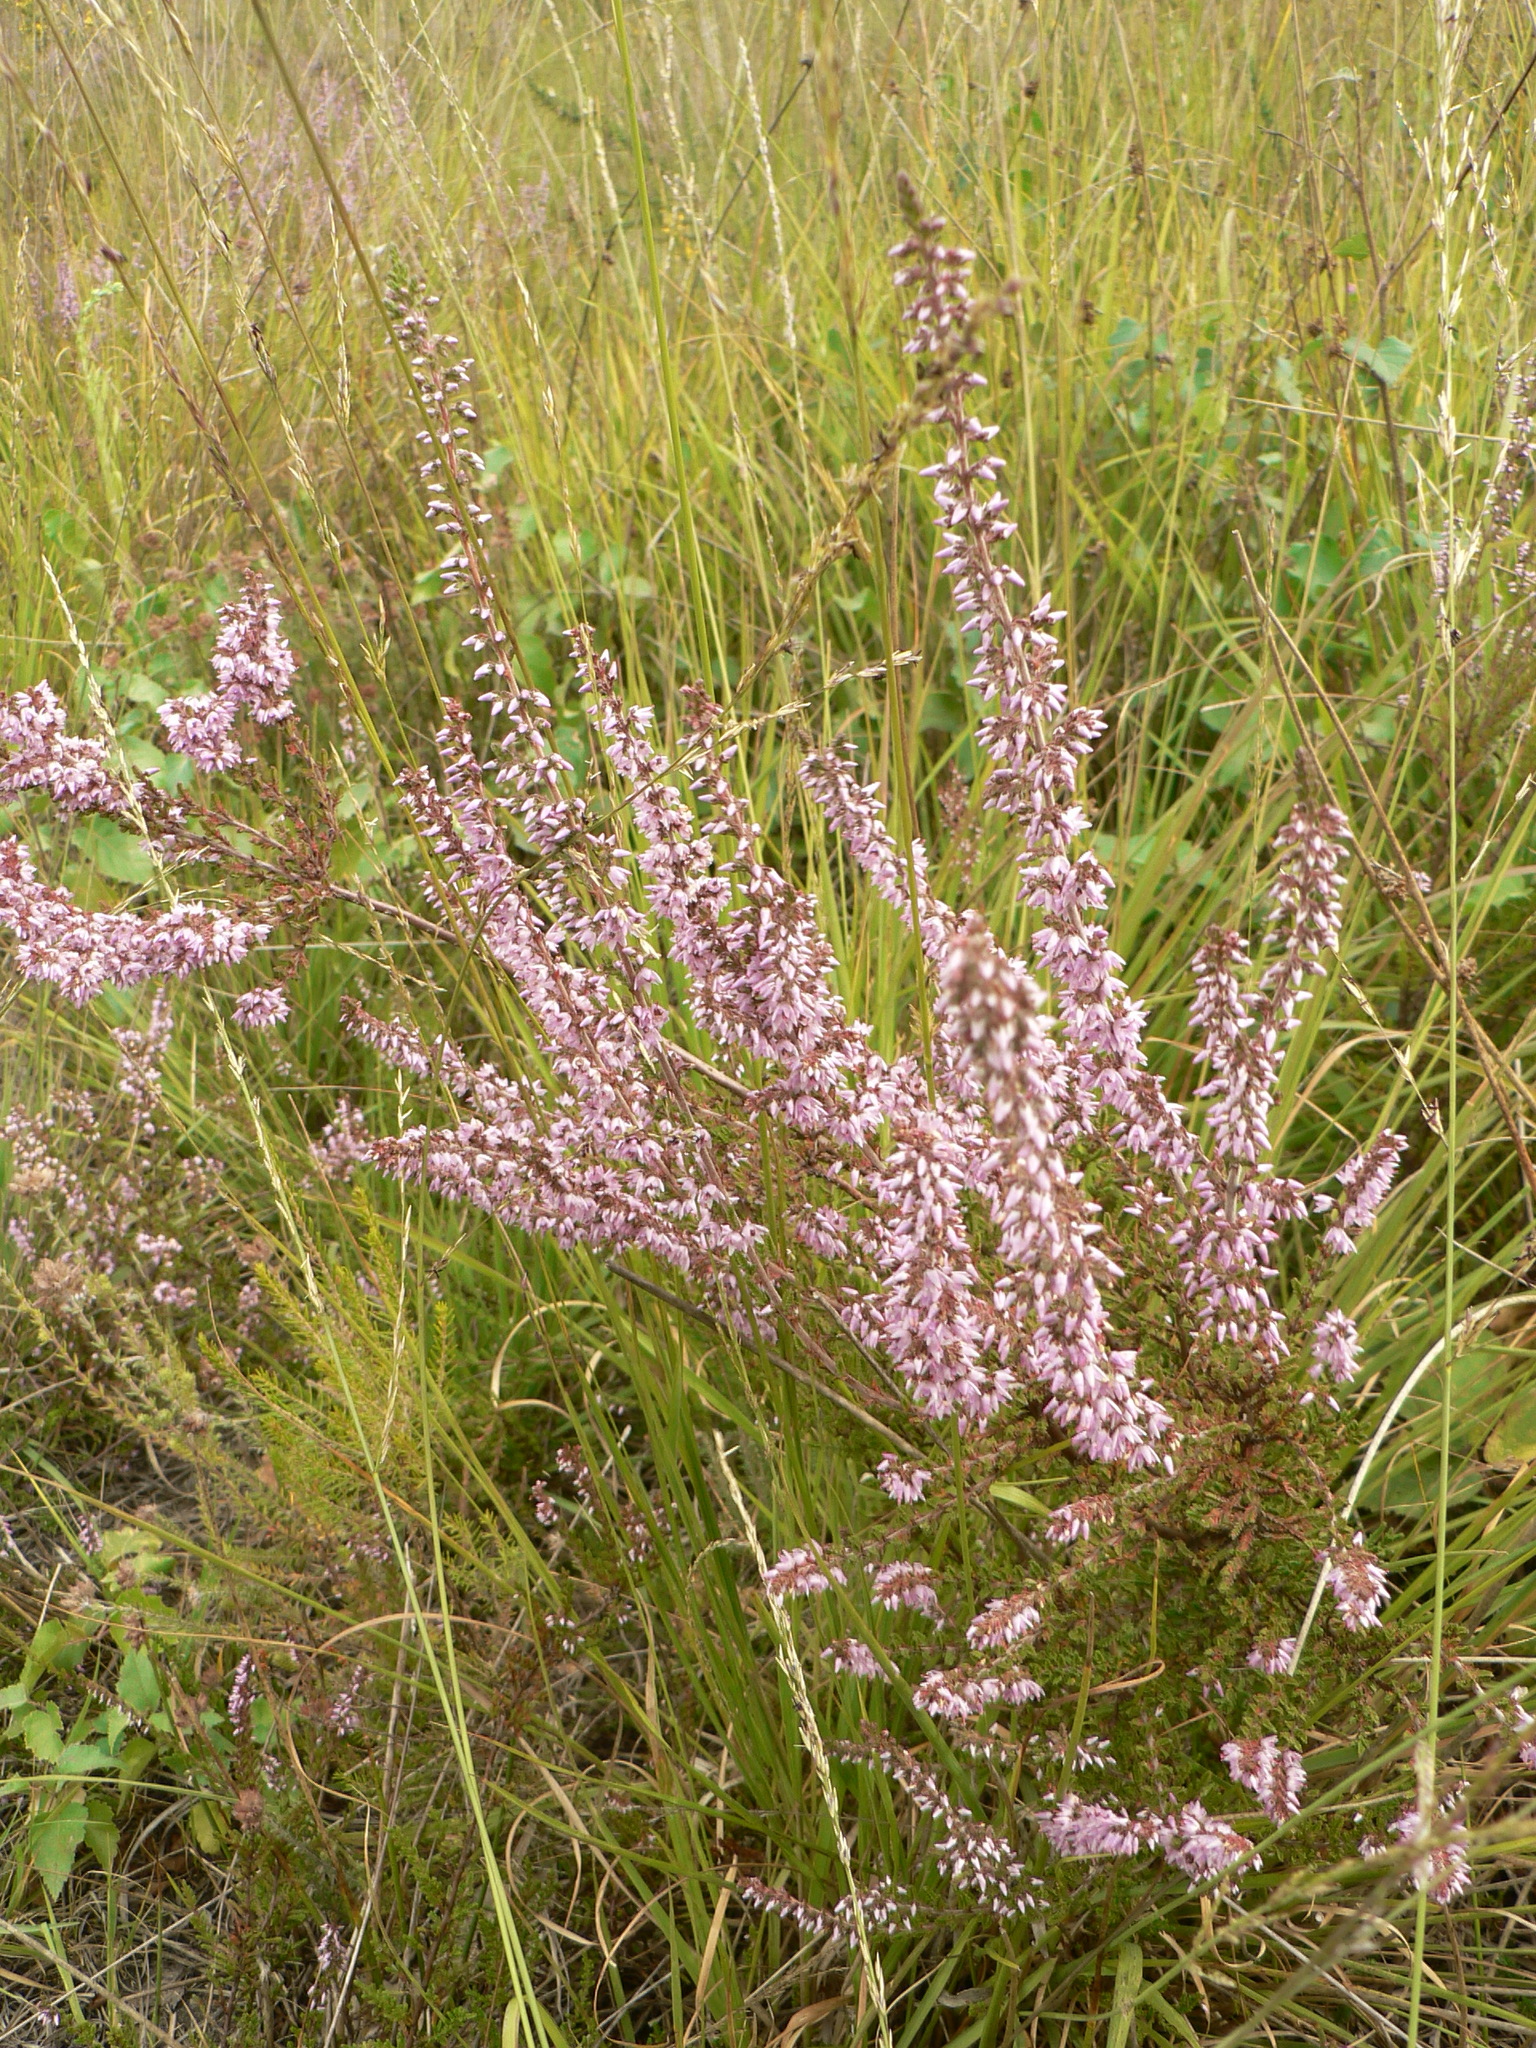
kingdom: Plantae
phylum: Tracheophyta
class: Magnoliopsida
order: Ericales
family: Ericaceae
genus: Calluna
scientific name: Calluna vulgaris
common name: Heather
